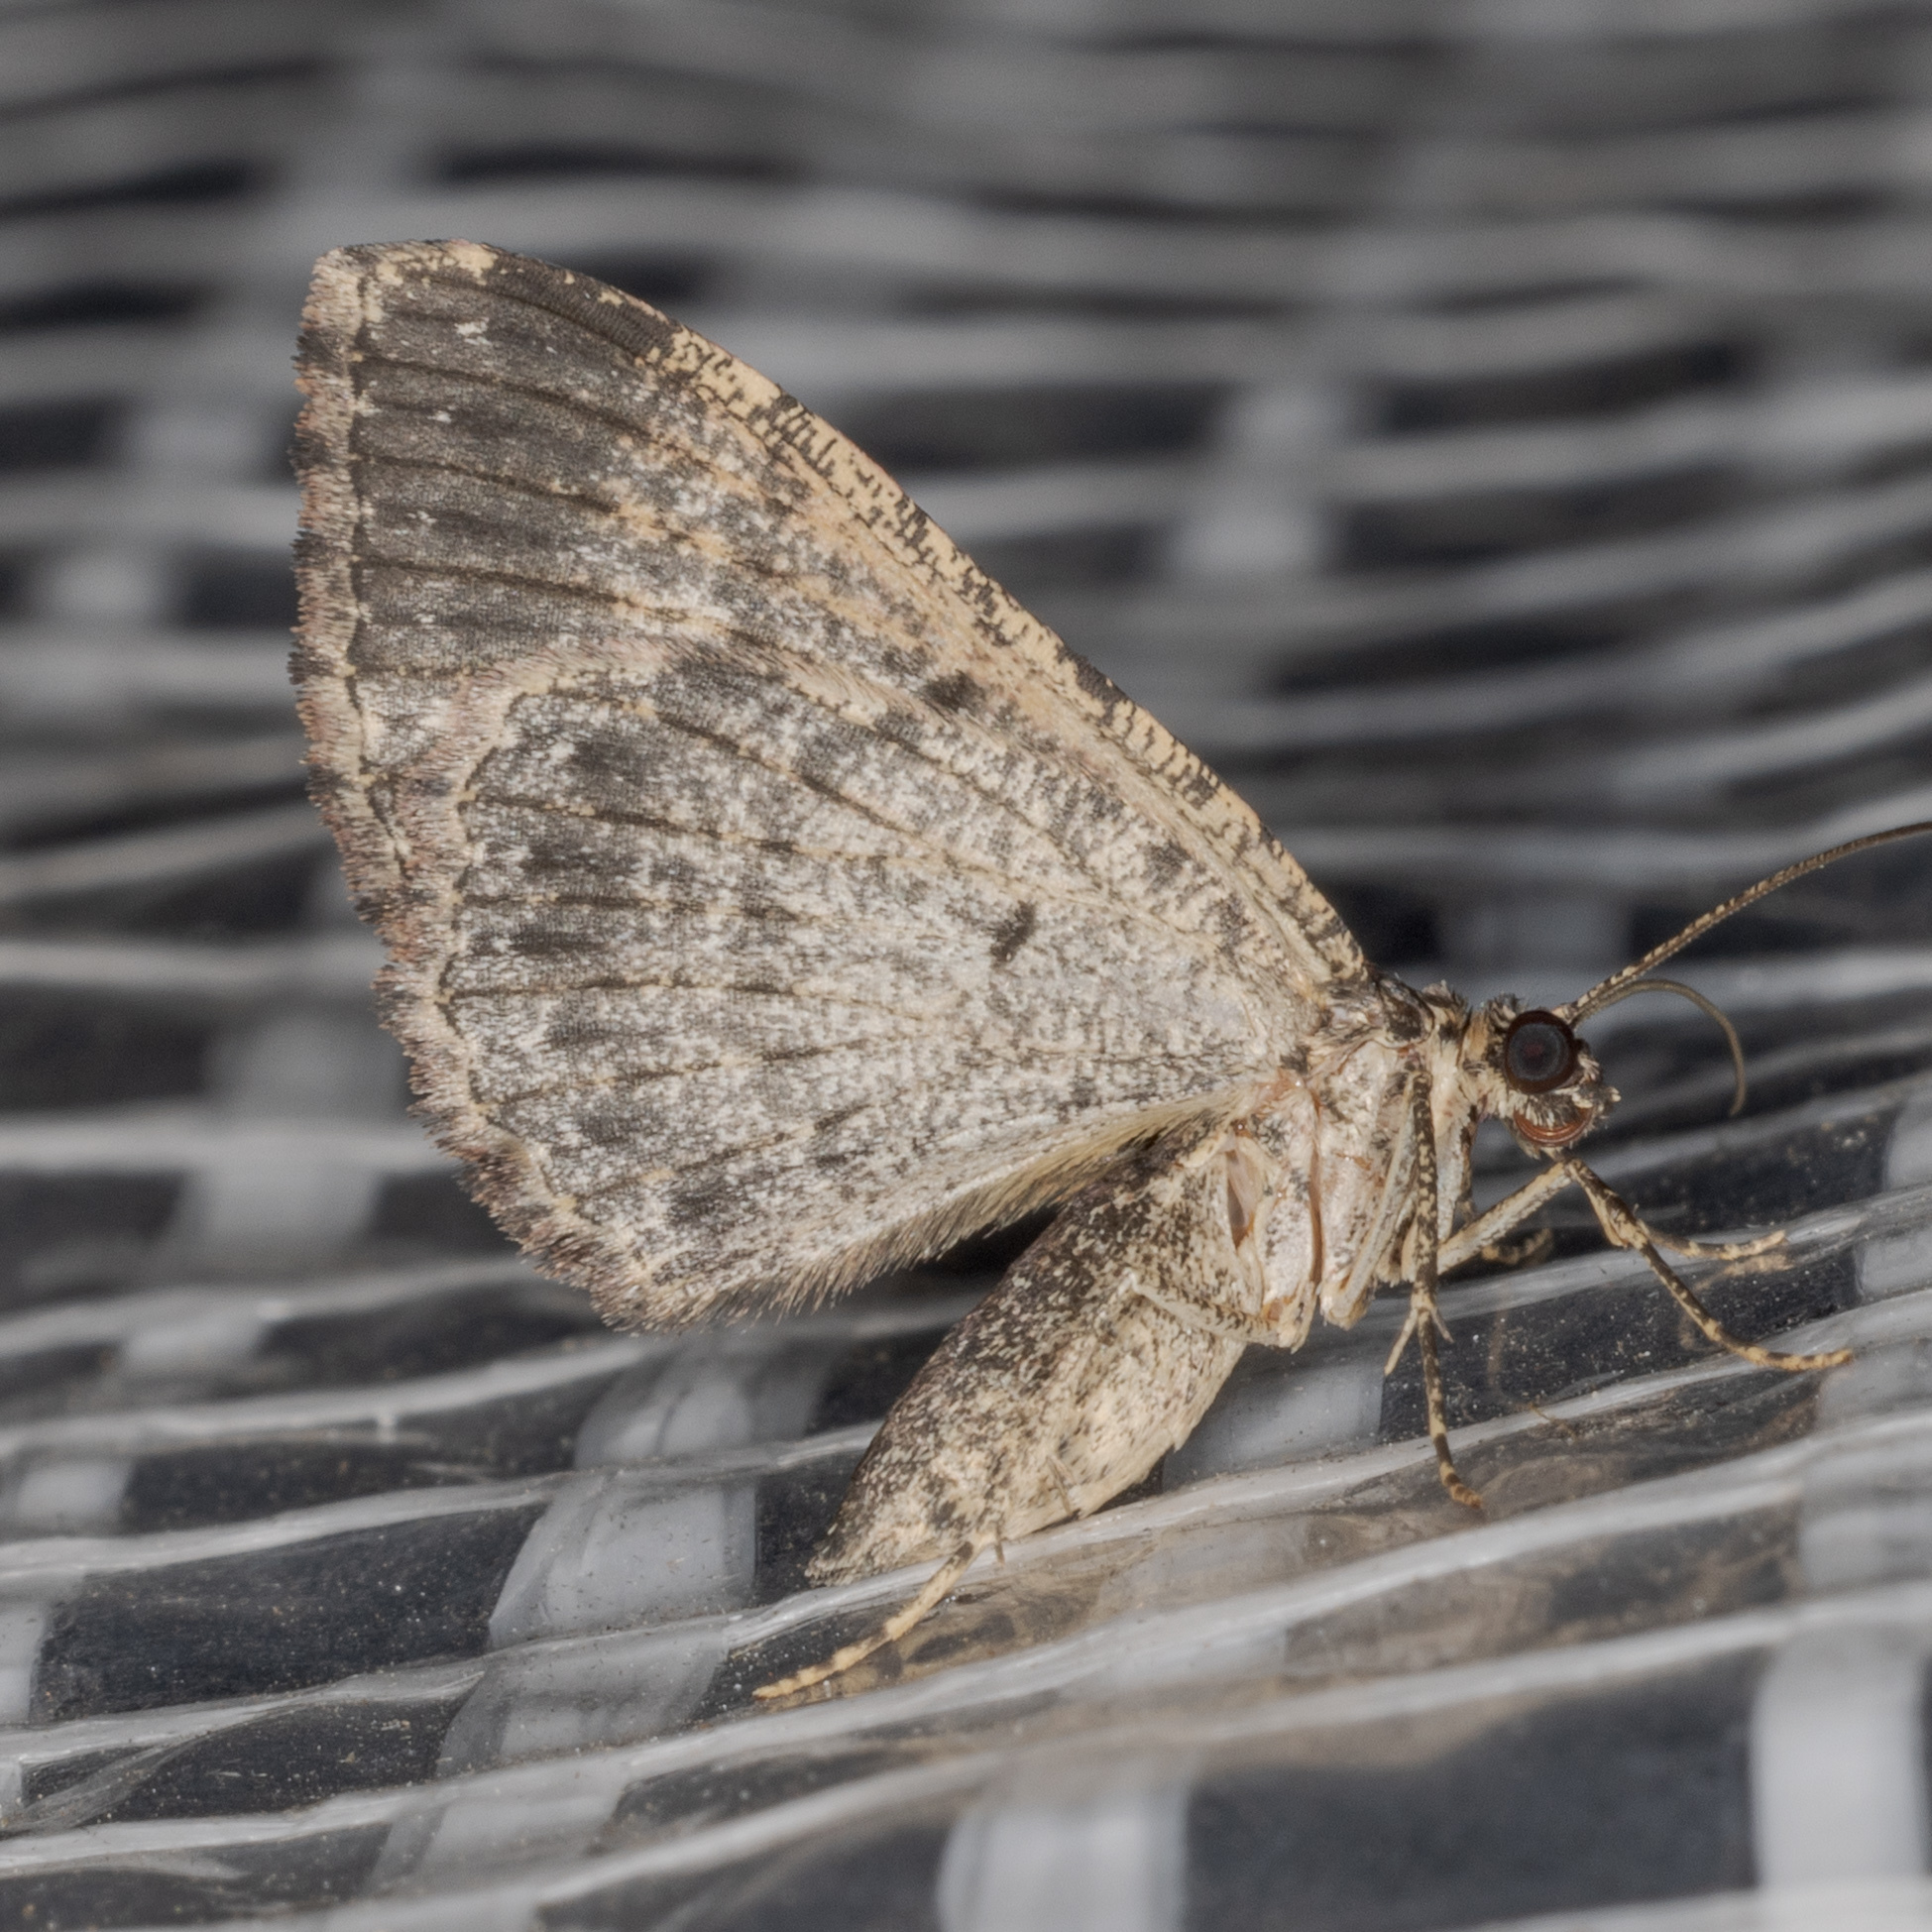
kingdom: Animalia
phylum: Arthropoda
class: Insecta
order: Lepidoptera
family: Geometridae
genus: Disclisioprocta
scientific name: Disclisioprocta stellata
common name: Somber carpet
